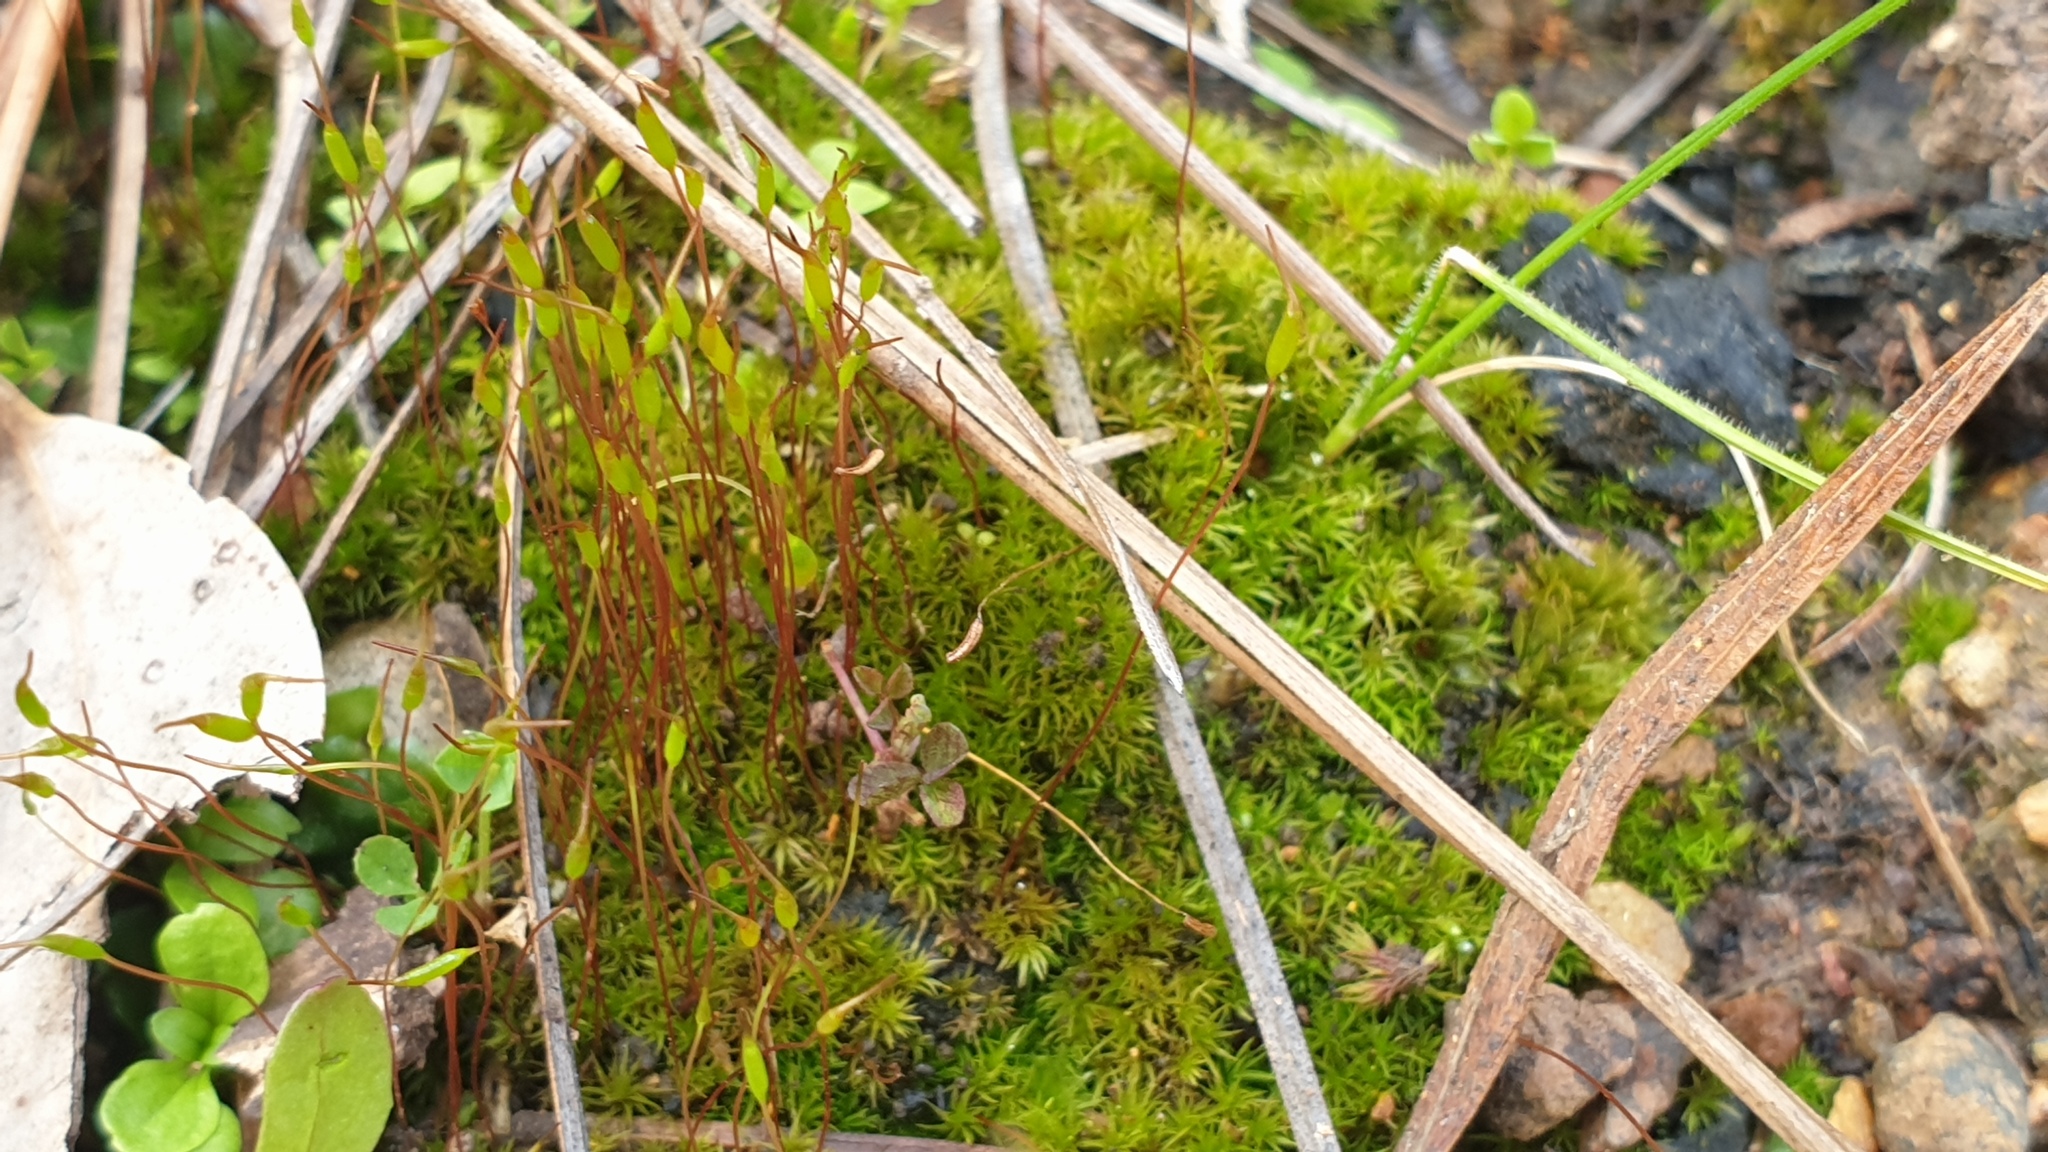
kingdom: Plantae
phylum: Bryophyta
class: Bryopsida
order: Dicranales
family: Ditrichaceae
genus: Ceratodon
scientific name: Ceratodon purpureus
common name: Redshank
